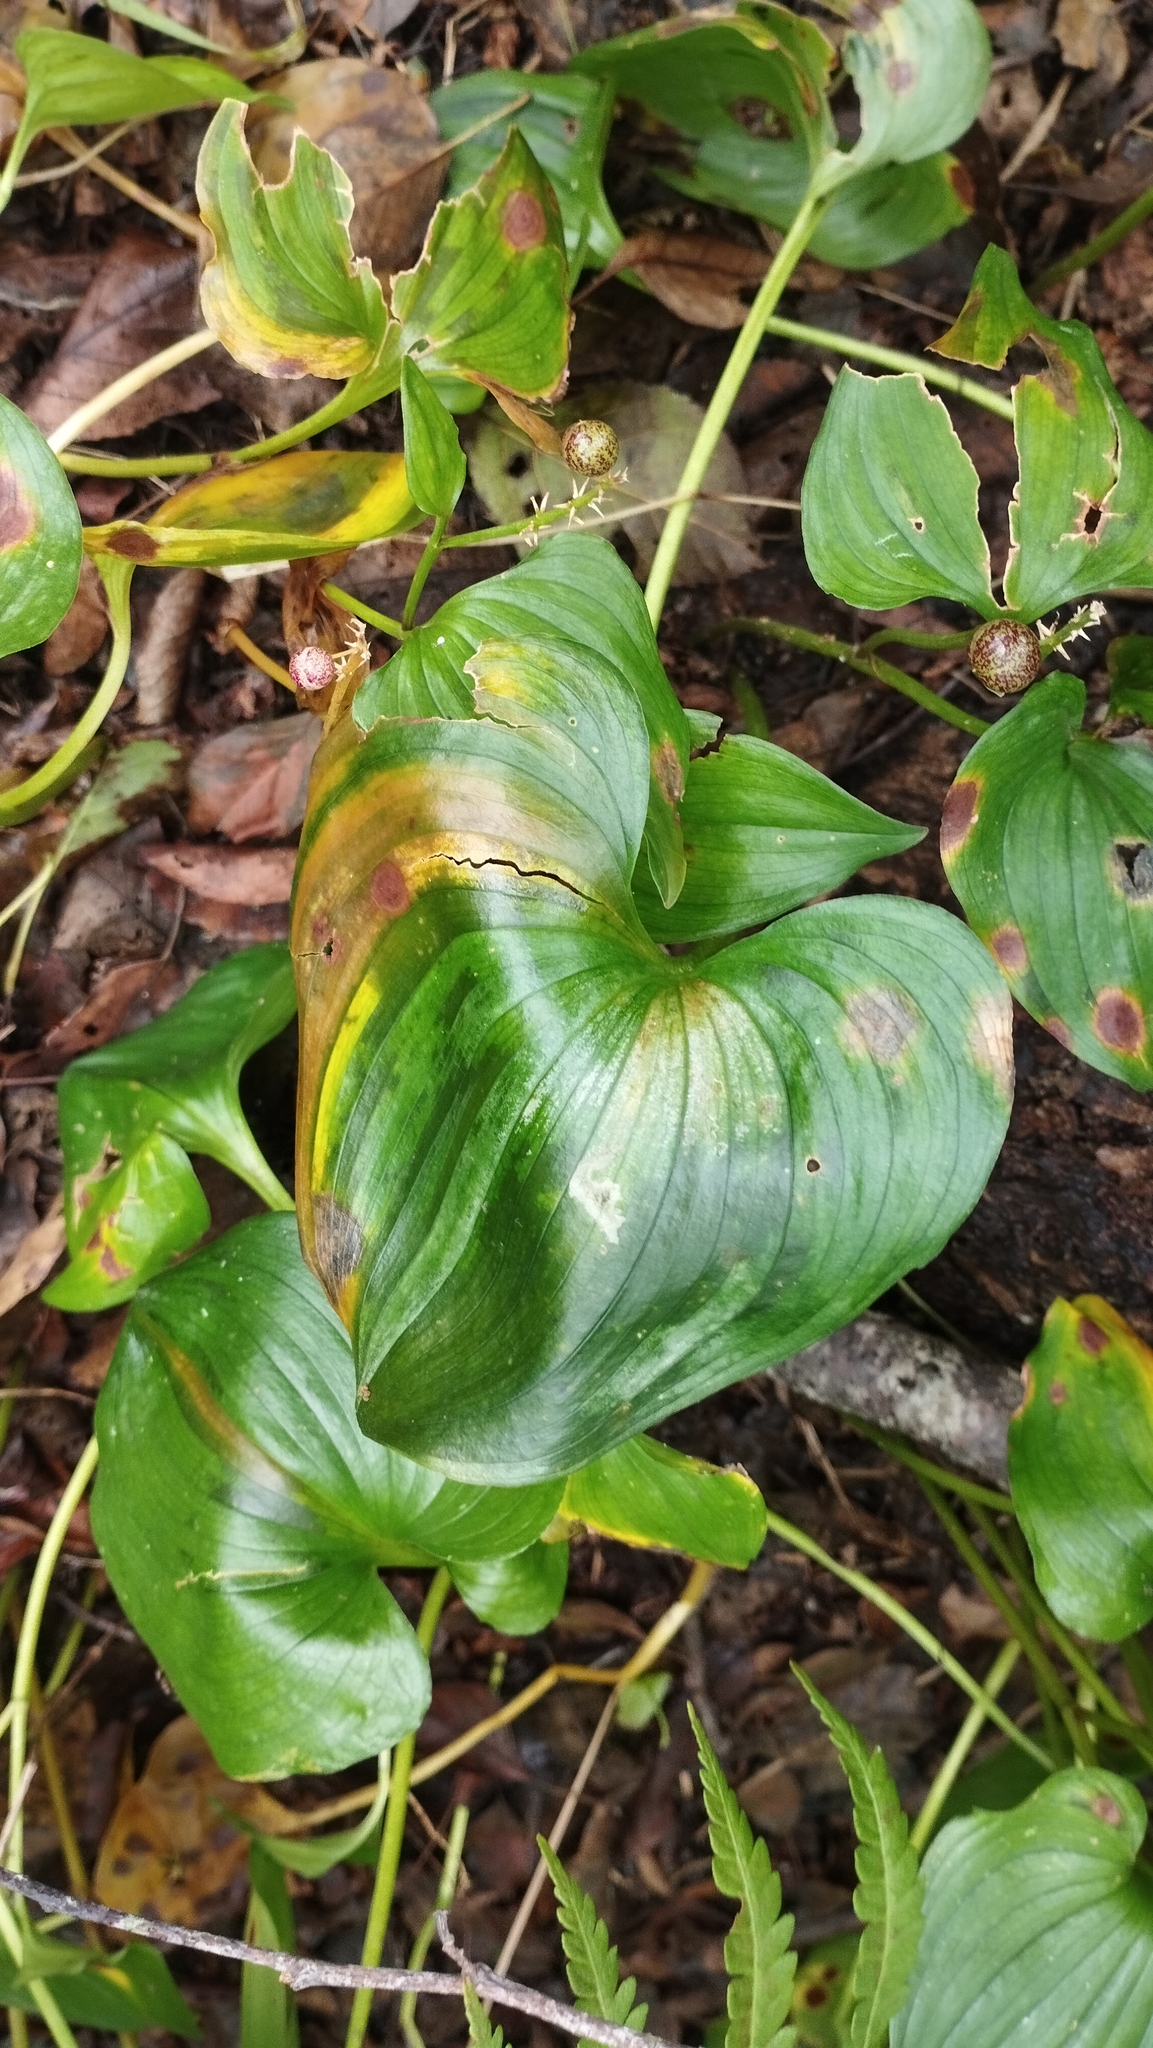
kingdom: Plantae
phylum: Tracheophyta
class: Liliopsida
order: Asparagales
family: Asparagaceae
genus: Maianthemum
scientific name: Maianthemum dilatatum
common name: False lily-of-the-valley
